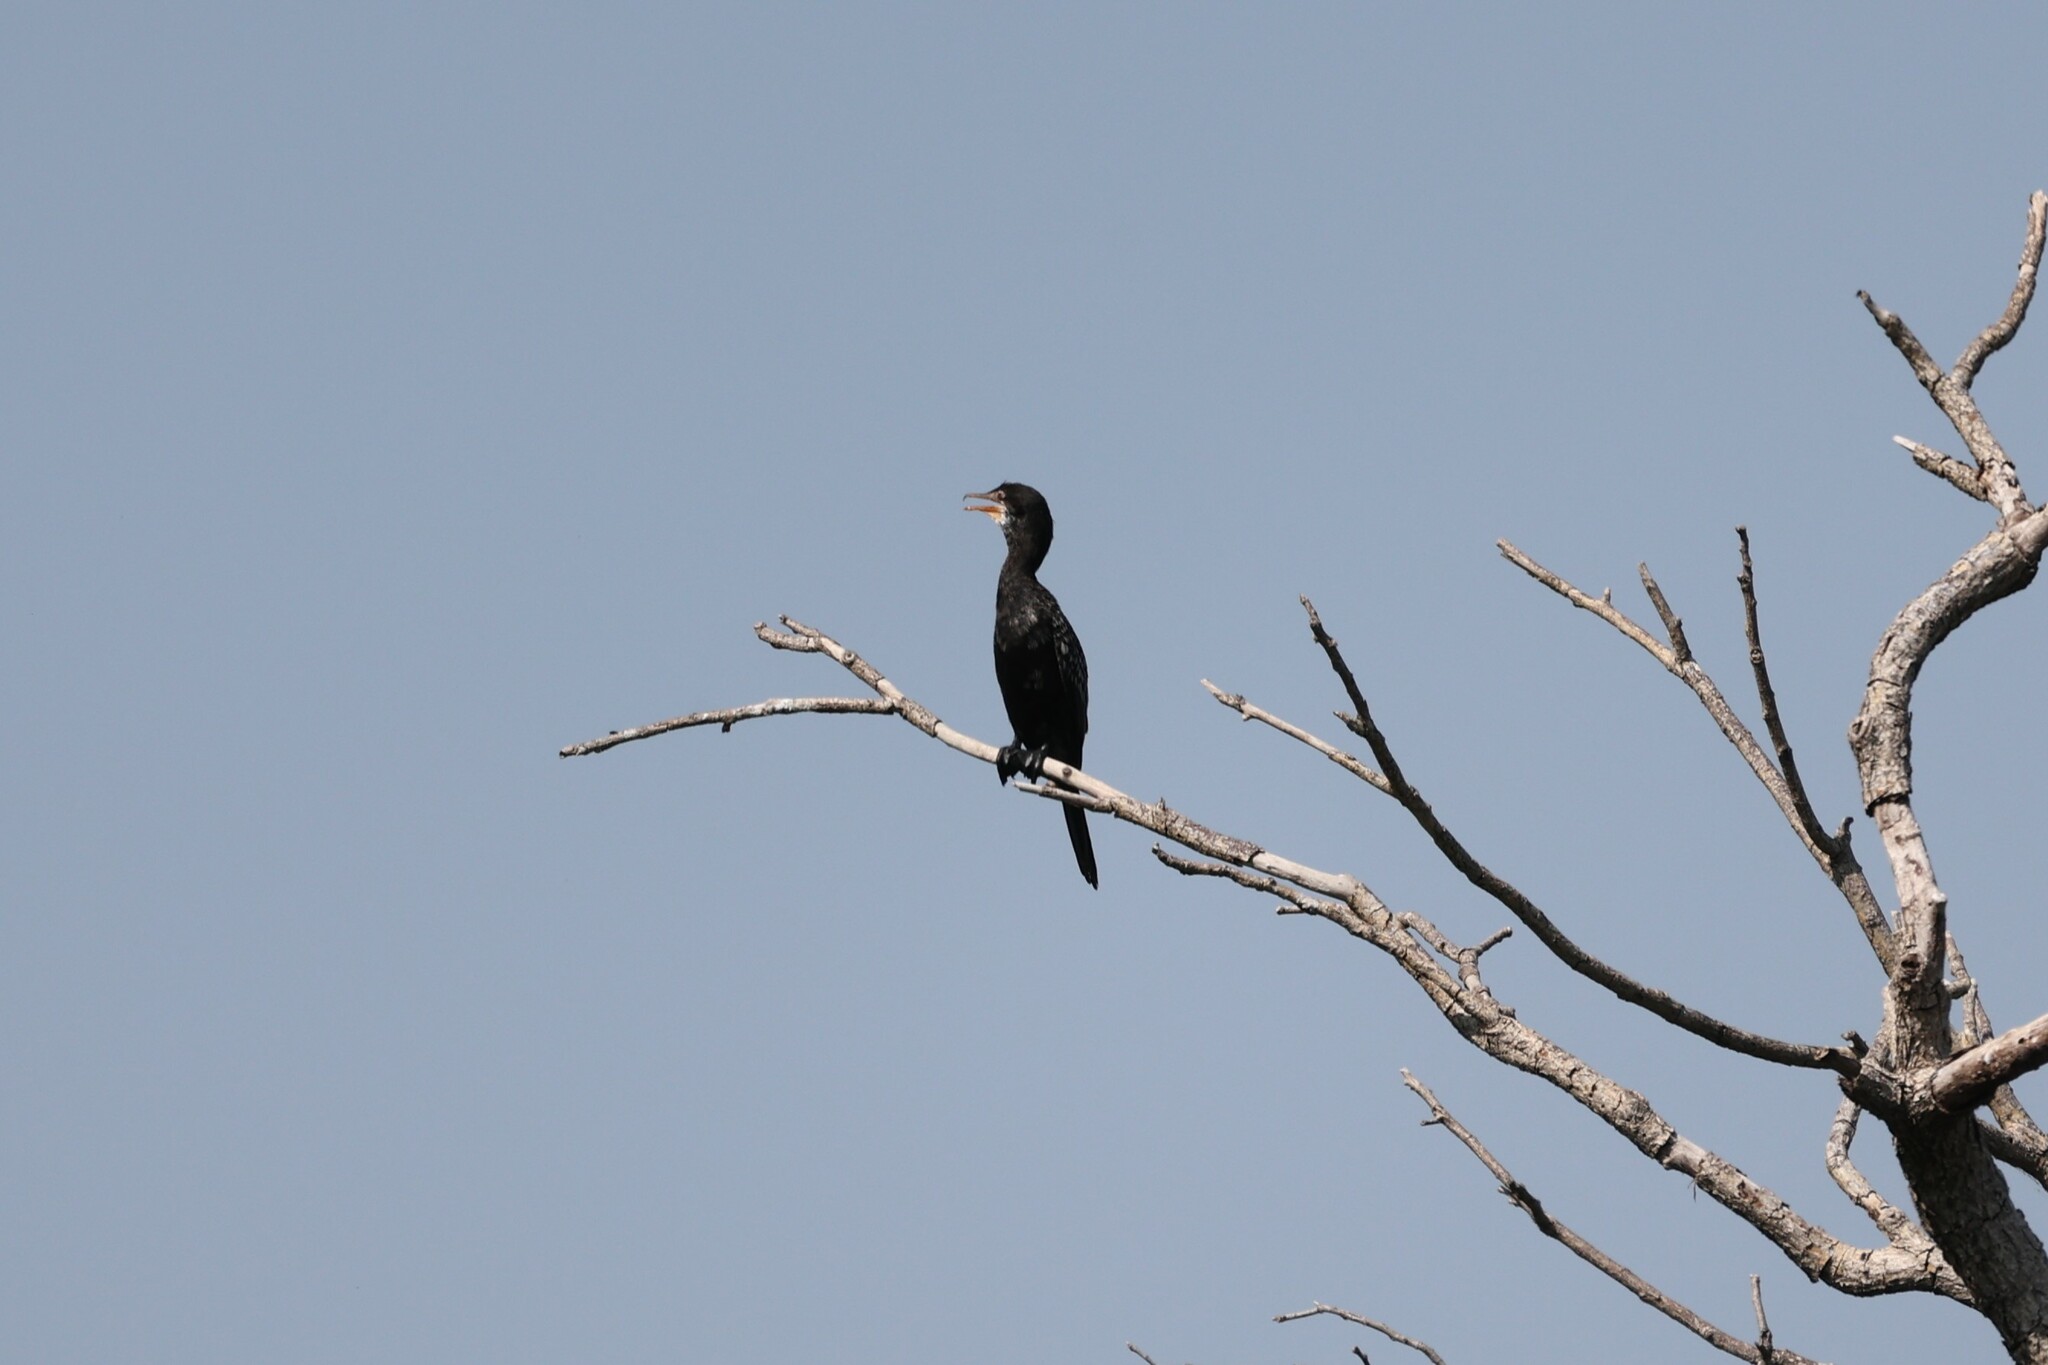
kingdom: Animalia
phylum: Chordata
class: Aves
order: Suliformes
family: Phalacrocoracidae
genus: Microcarbo
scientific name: Microcarbo africanus
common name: Long-tailed cormorant
